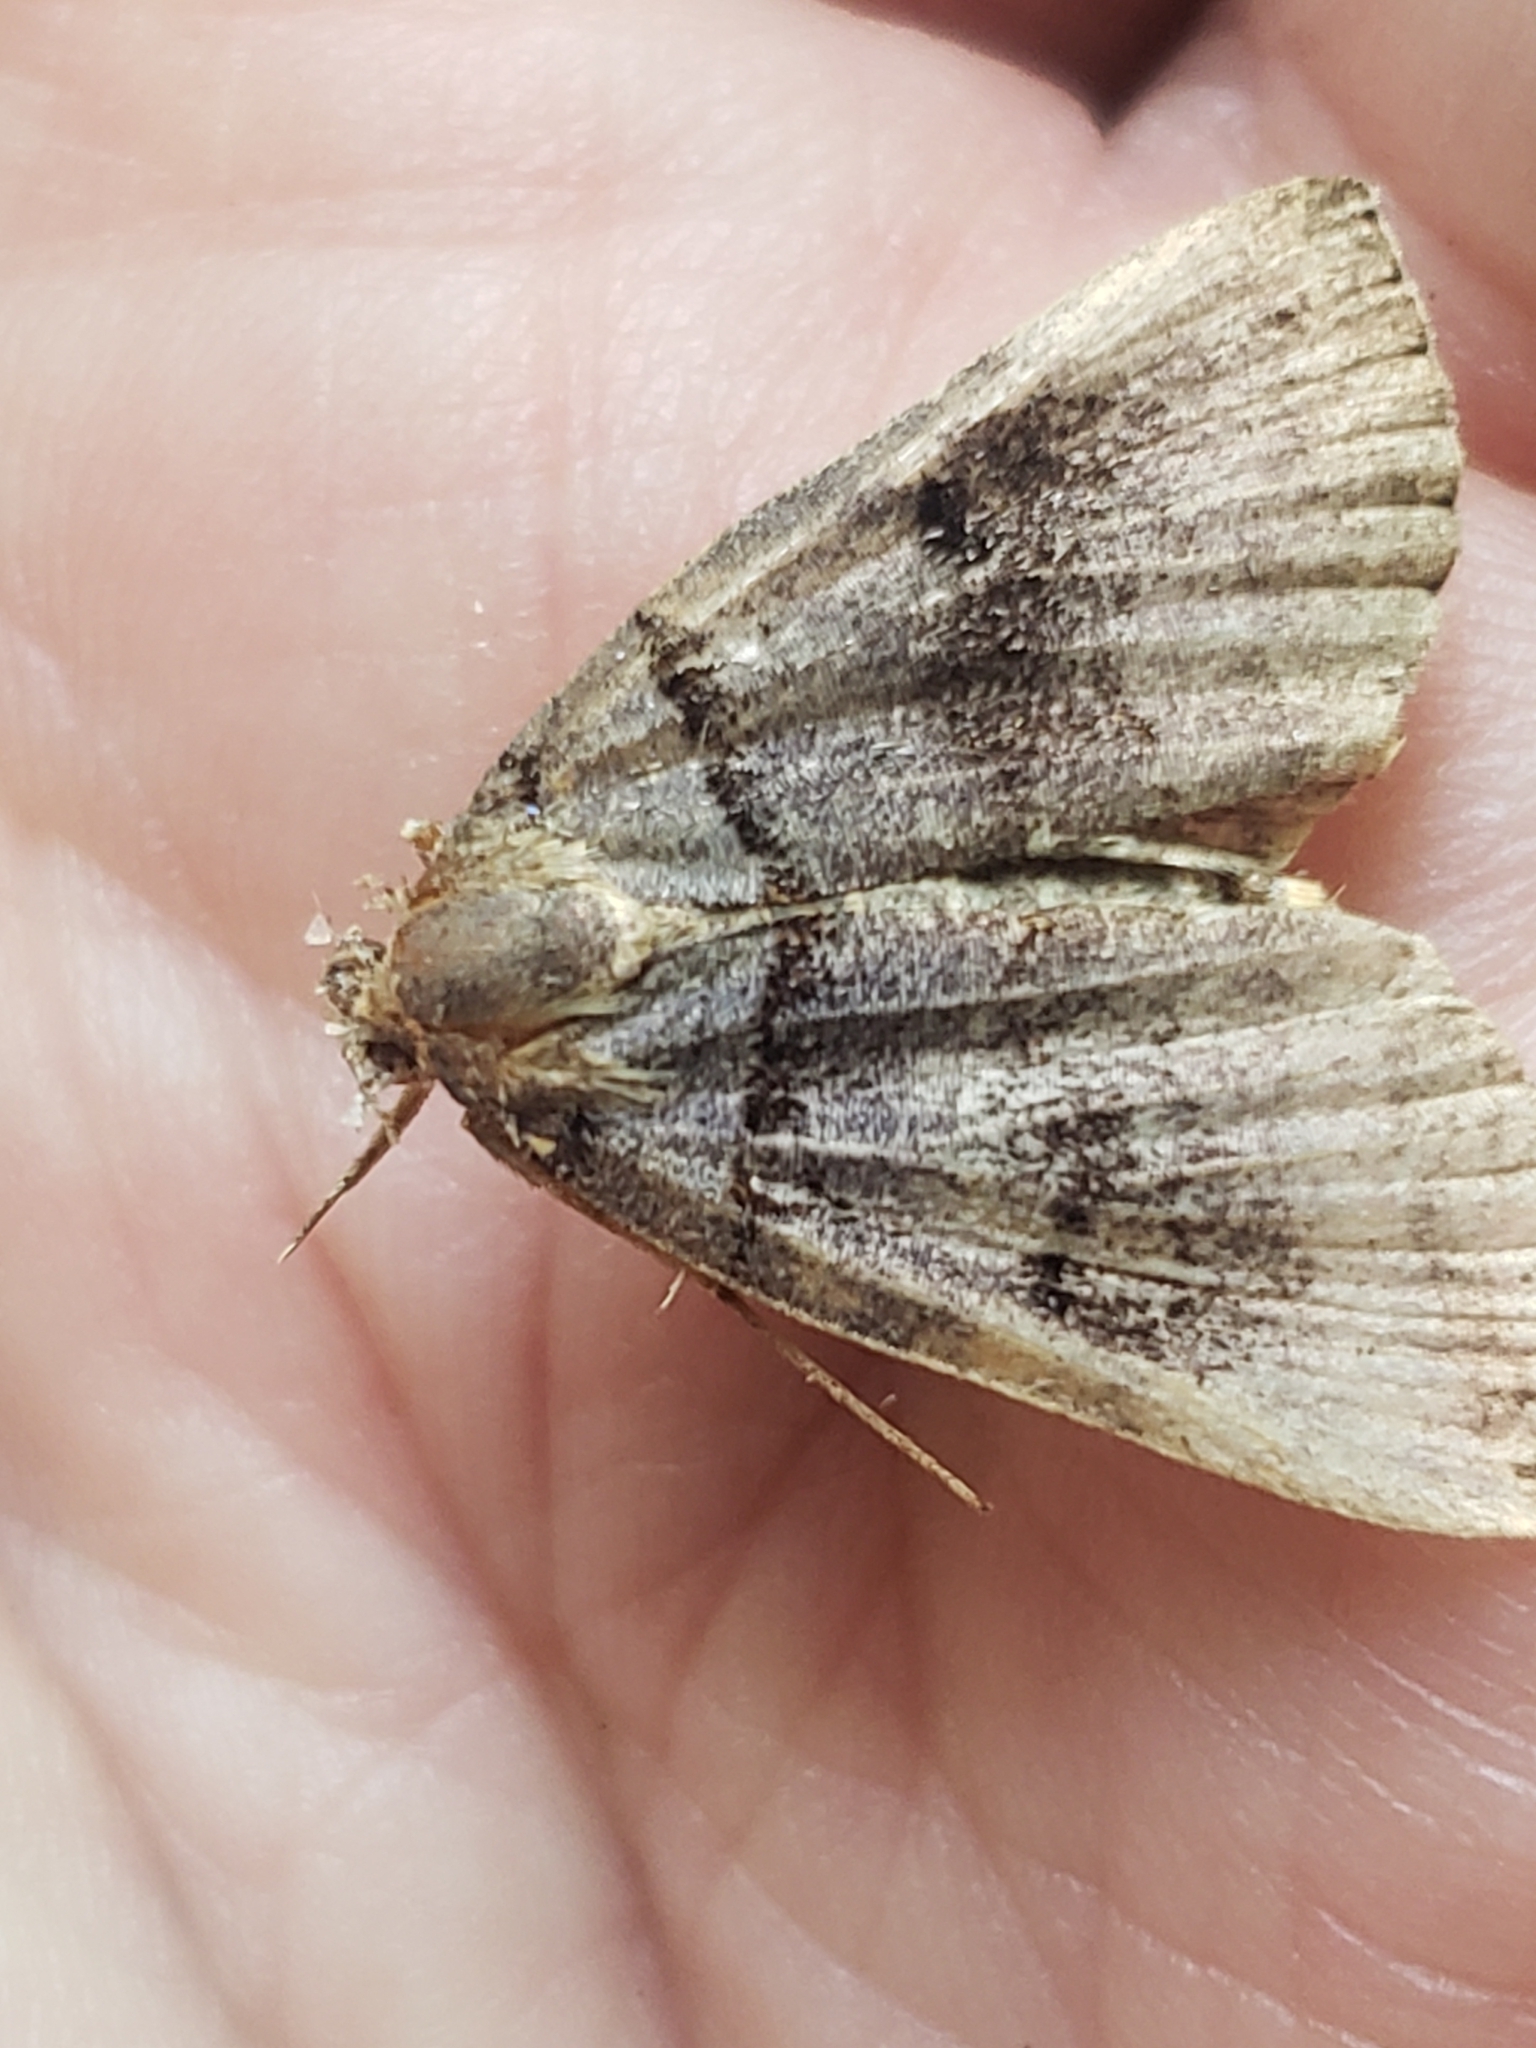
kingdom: Animalia
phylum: Arthropoda
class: Insecta
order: Lepidoptera
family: Erebidae
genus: Zanclognatha
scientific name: Zanclognatha laevigata
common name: Variable fan-foot
